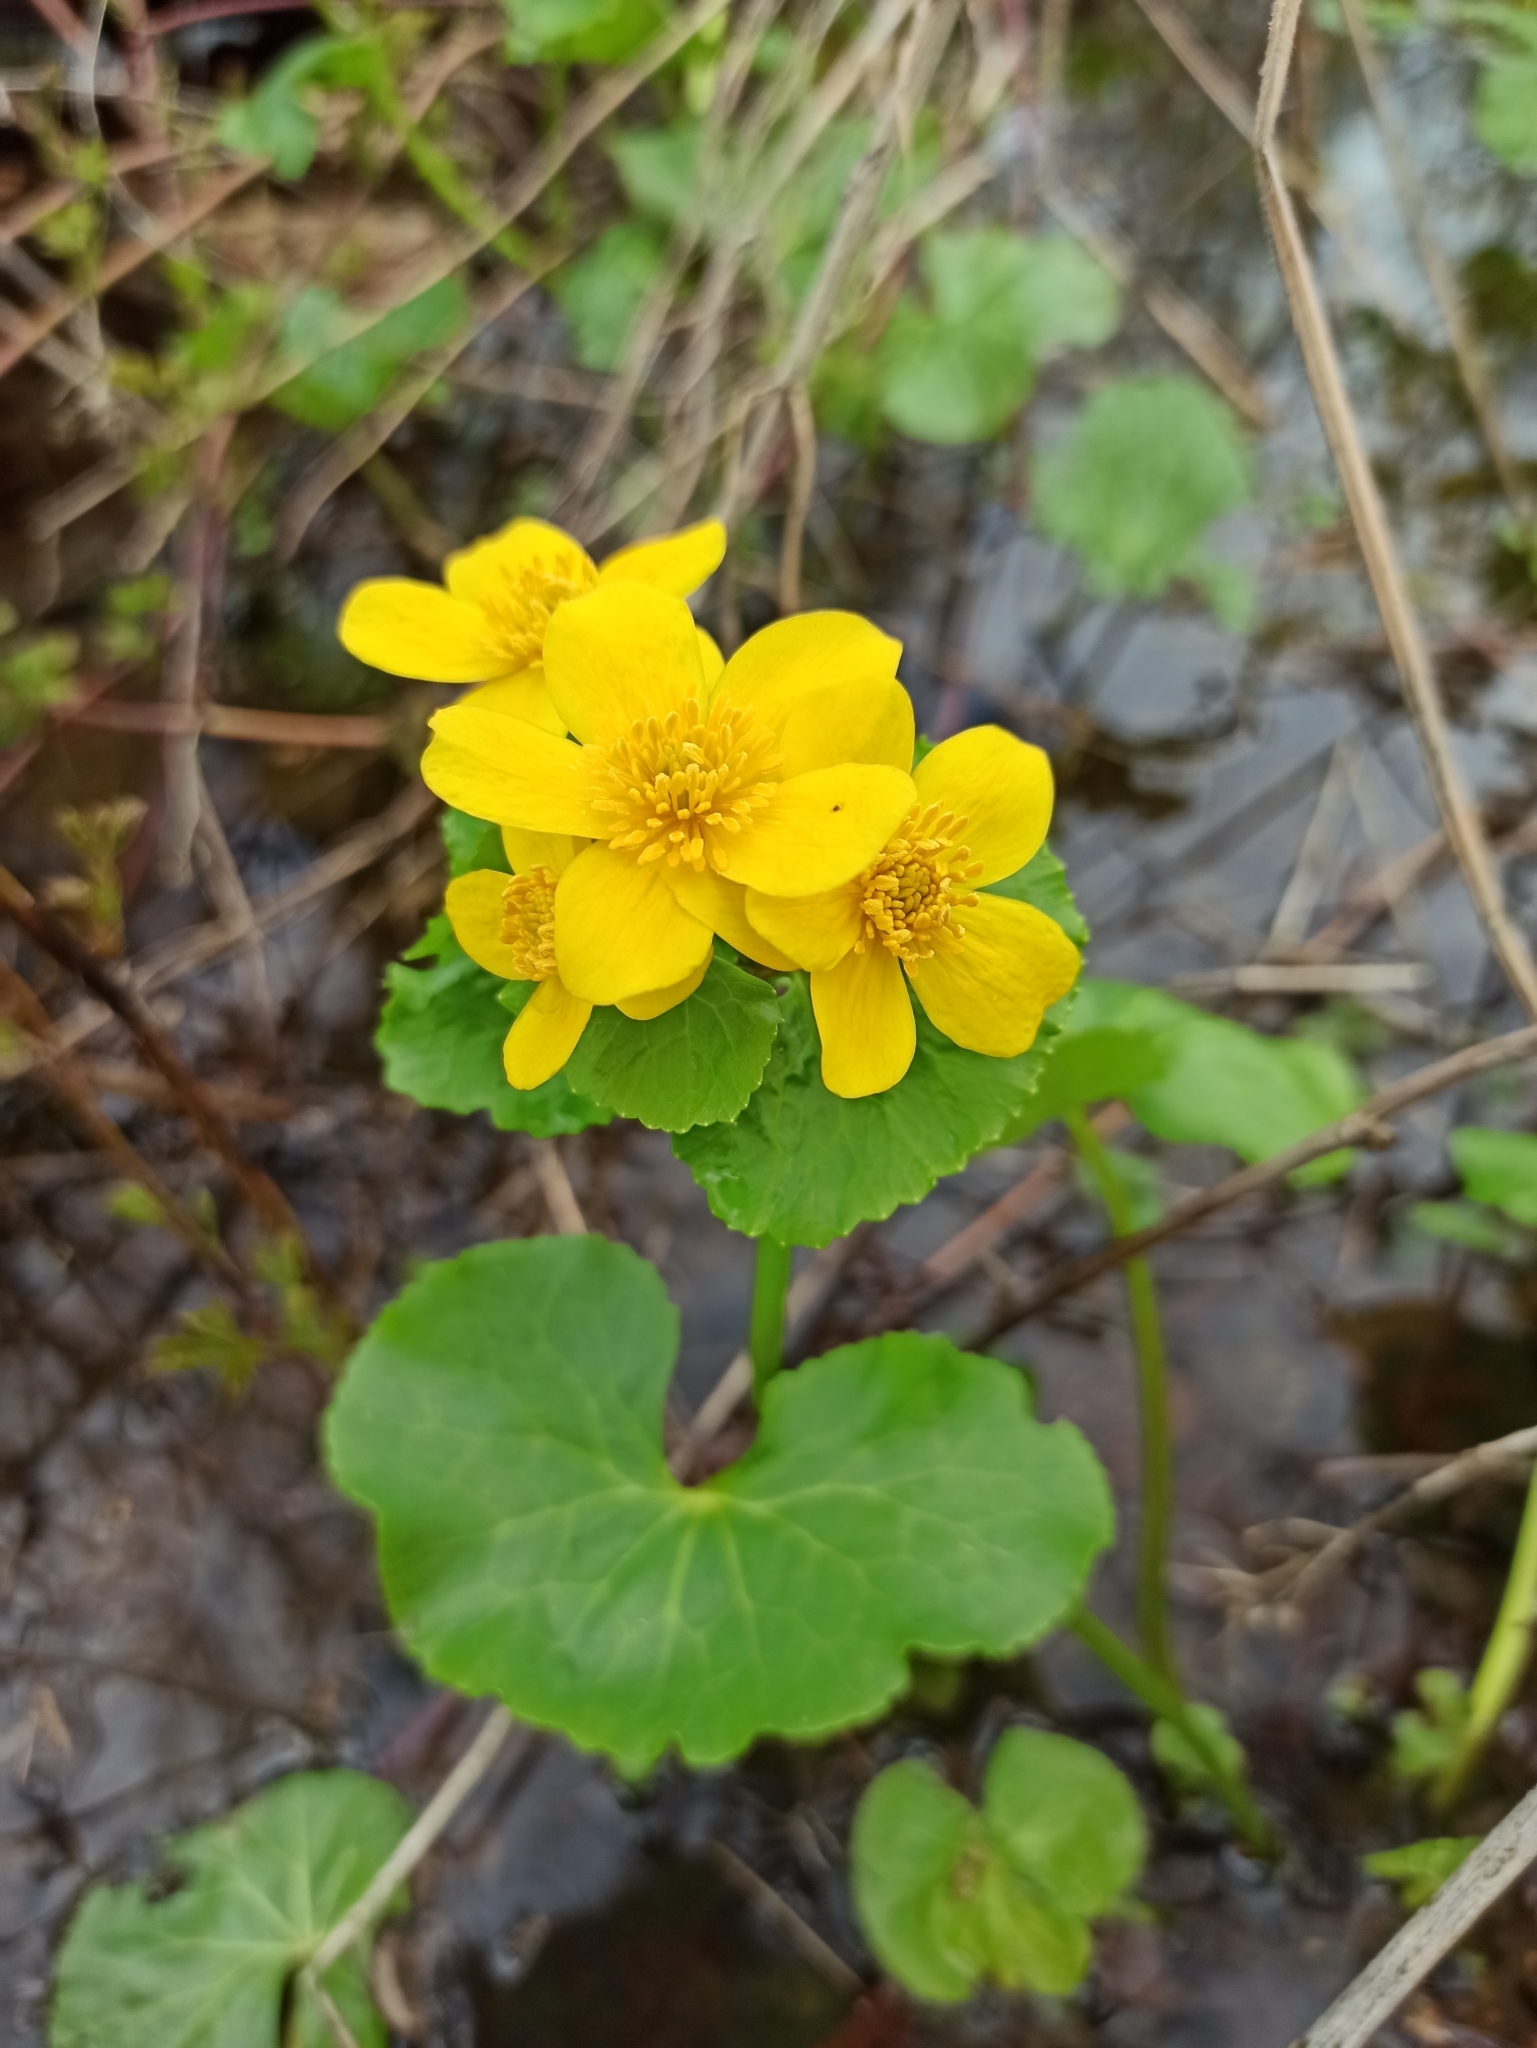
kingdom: Plantae
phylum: Tracheophyta
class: Magnoliopsida
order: Ranunculales
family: Ranunculaceae
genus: Caltha
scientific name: Caltha palustris
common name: Marsh marigold
